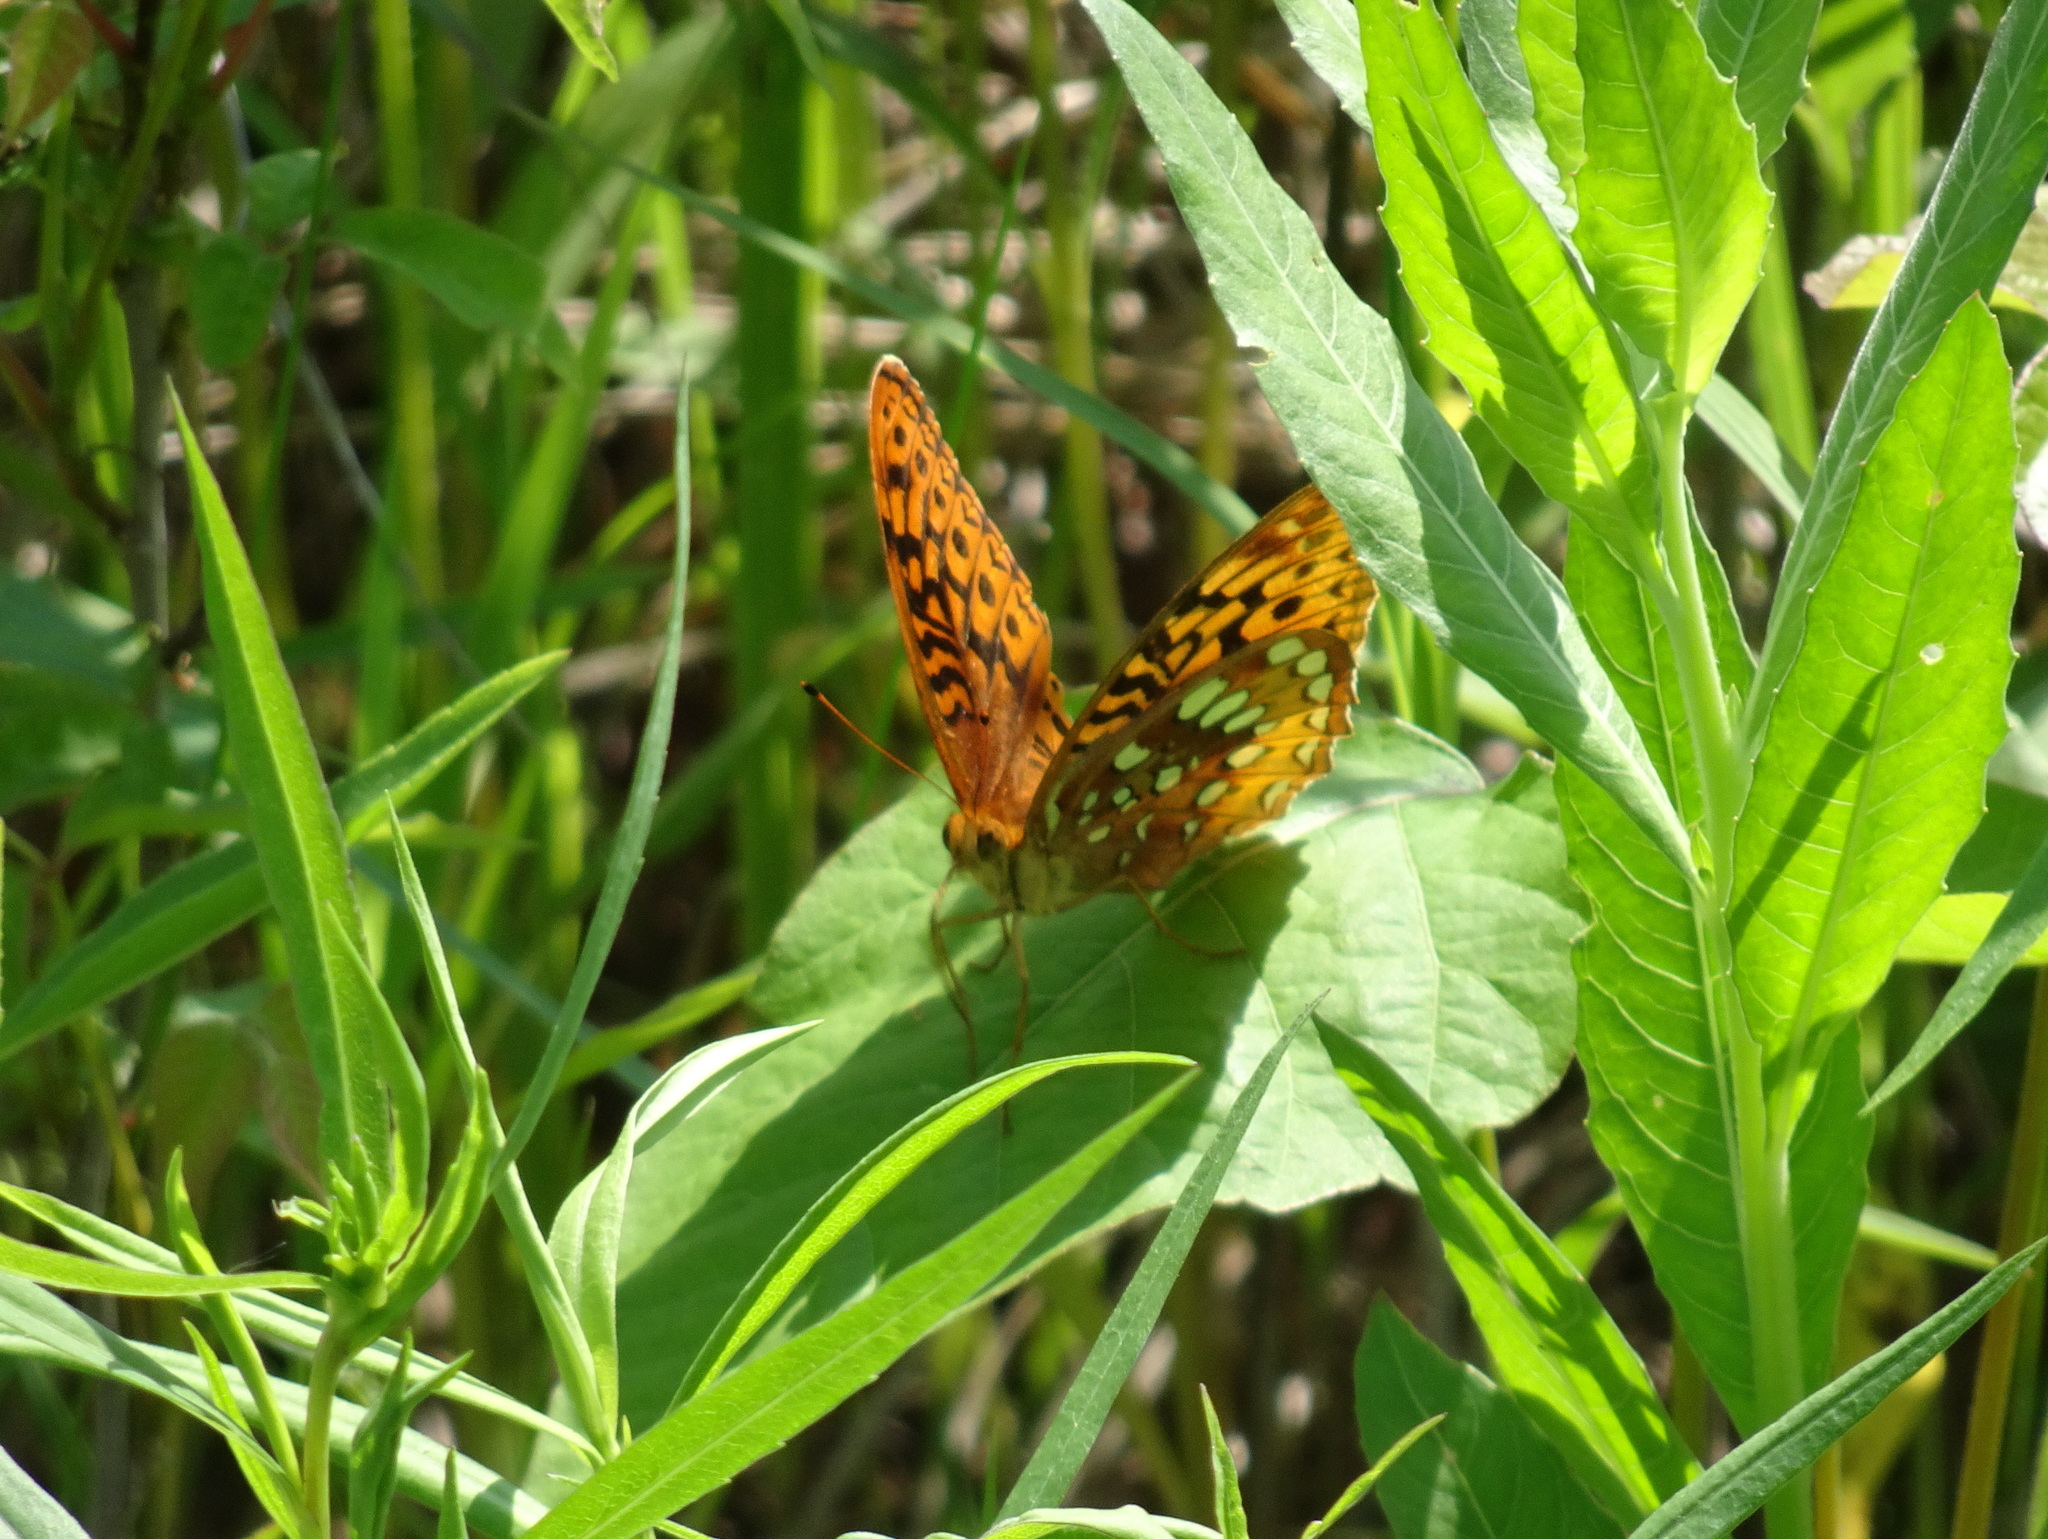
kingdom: Animalia
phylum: Arthropoda
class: Insecta
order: Lepidoptera
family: Nymphalidae
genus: Speyeria
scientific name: Speyeria cybele
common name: Great spangled fritillary
